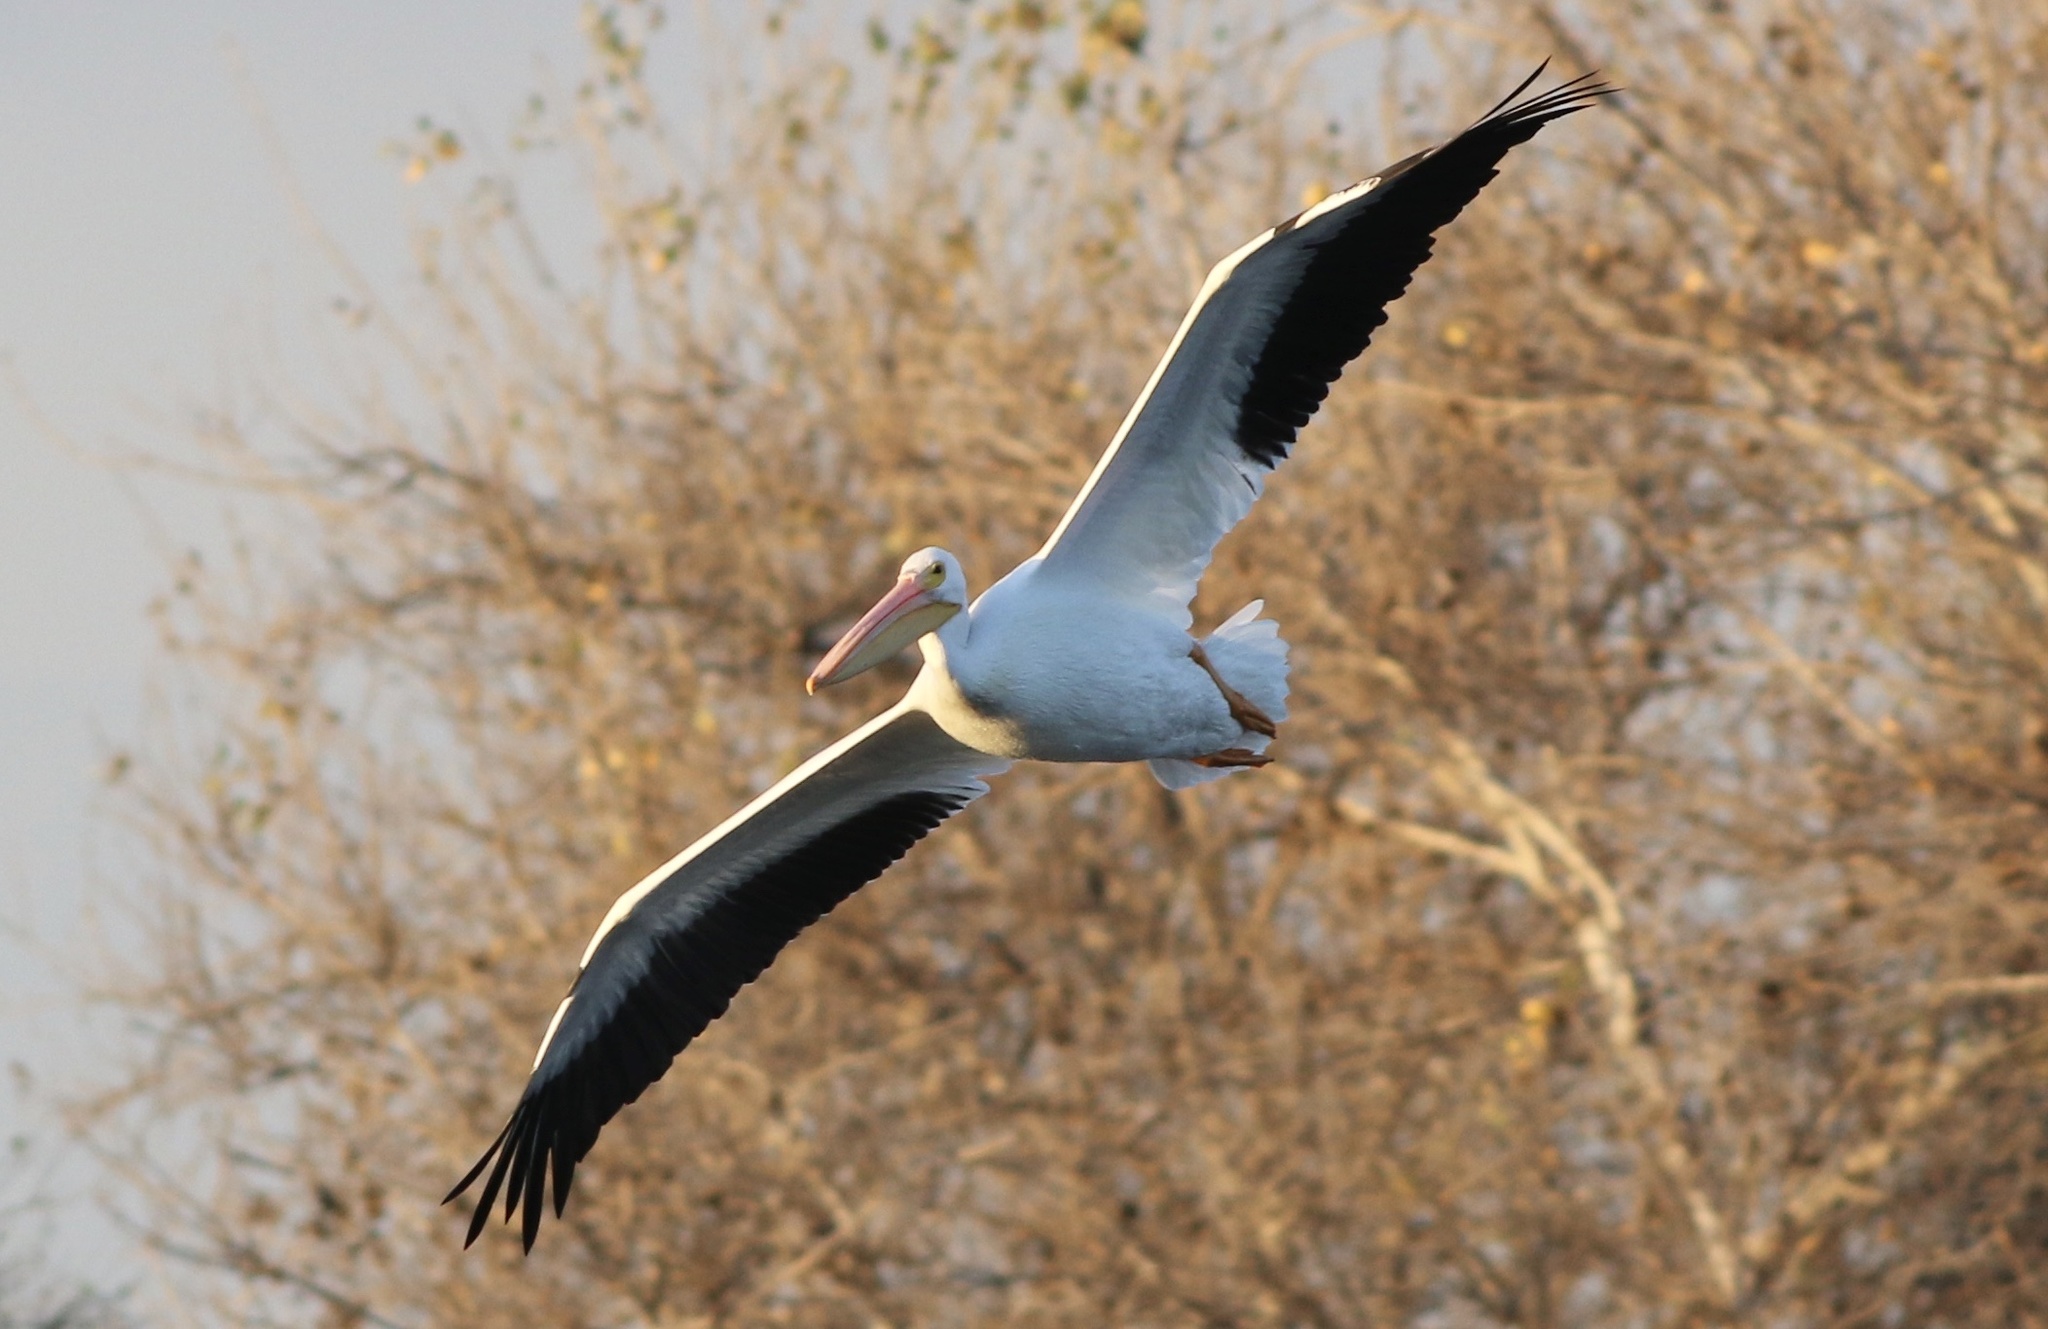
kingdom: Animalia
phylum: Chordata
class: Aves
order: Pelecaniformes
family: Pelecanidae
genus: Pelecanus
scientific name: Pelecanus erythrorhynchos
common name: American white pelican
